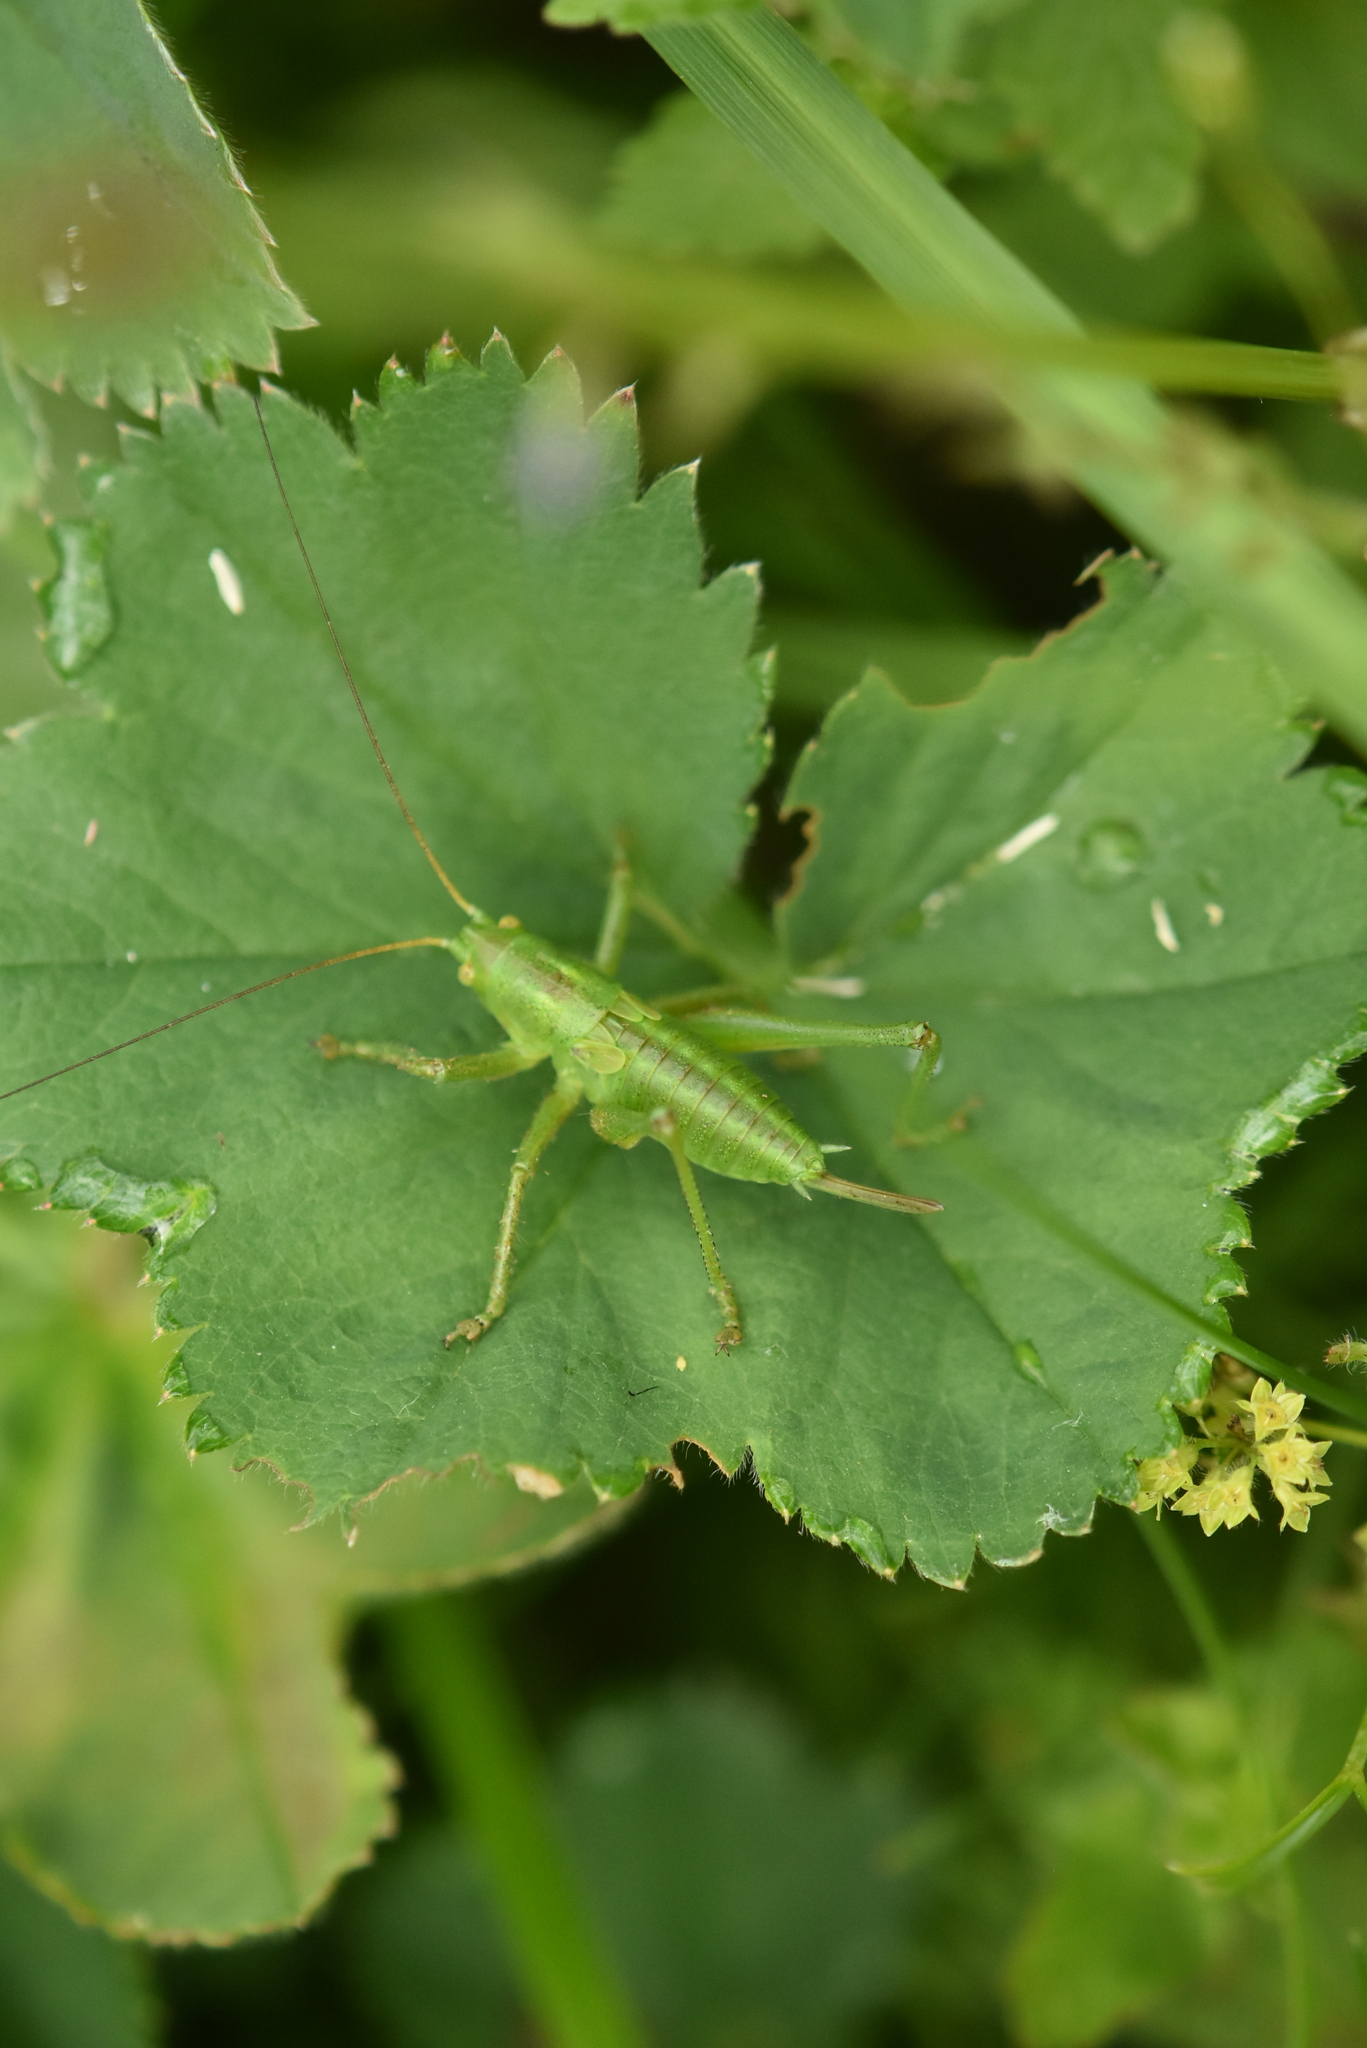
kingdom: Animalia
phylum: Arthropoda
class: Insecta
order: Orthoptera
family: Tettigoniidae
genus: Tettigonia
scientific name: Tettigonia cantans
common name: Upland green bush-cricket
